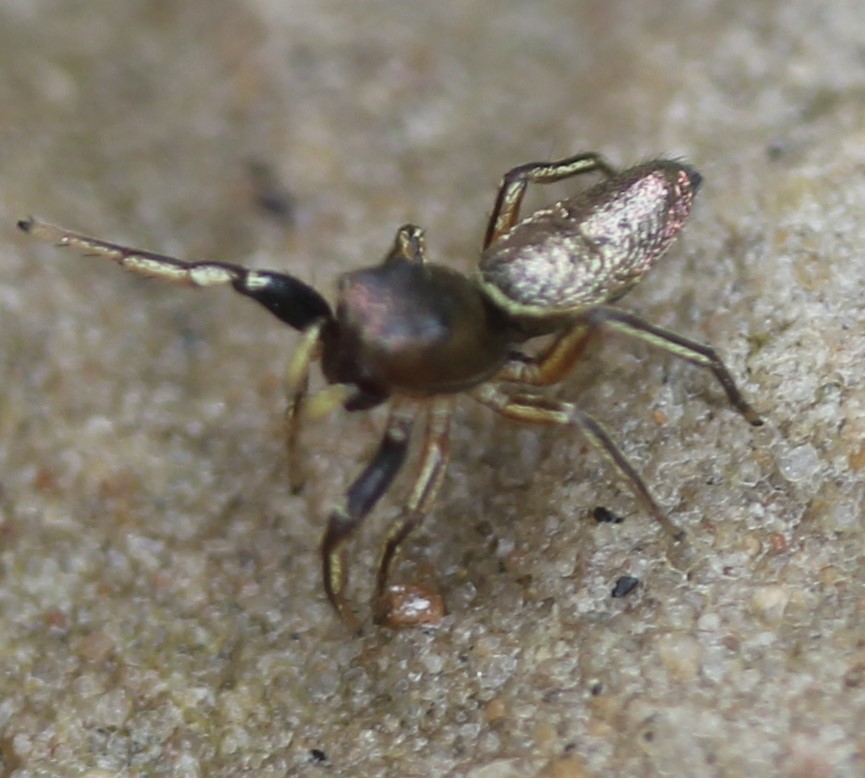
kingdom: Animalia
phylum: Arthropoda
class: Arachnida
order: Araneae
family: Salticidae
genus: Tutelina
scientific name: Tutelina elegans
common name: Thin-spined jumping spider
